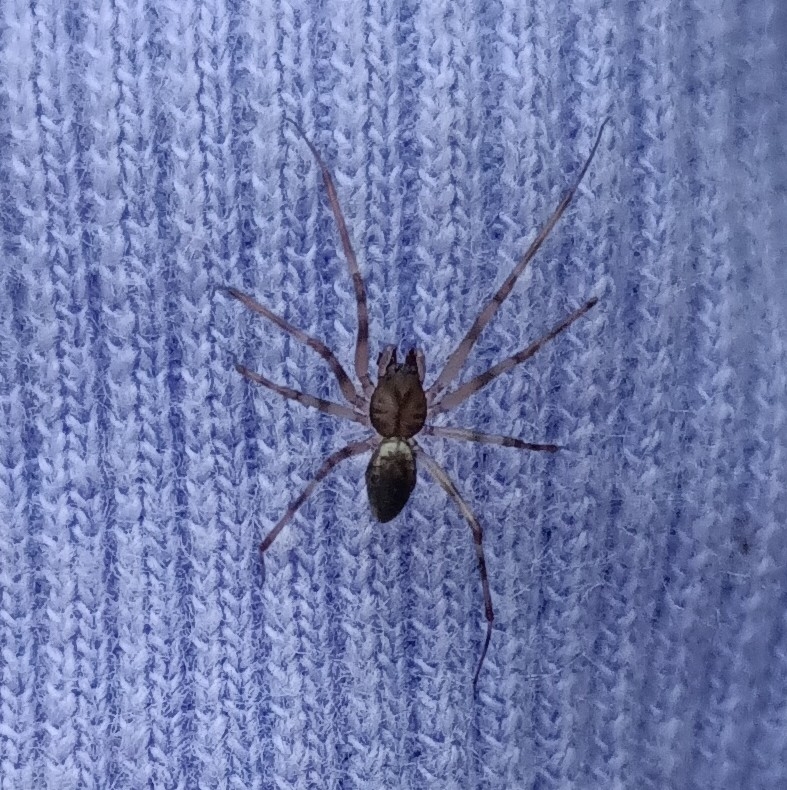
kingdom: Animalia
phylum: Arthropoda
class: Arachnida
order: Araneae
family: Linyphiidae
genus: Drapetisca
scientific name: Drapetisca socialis
